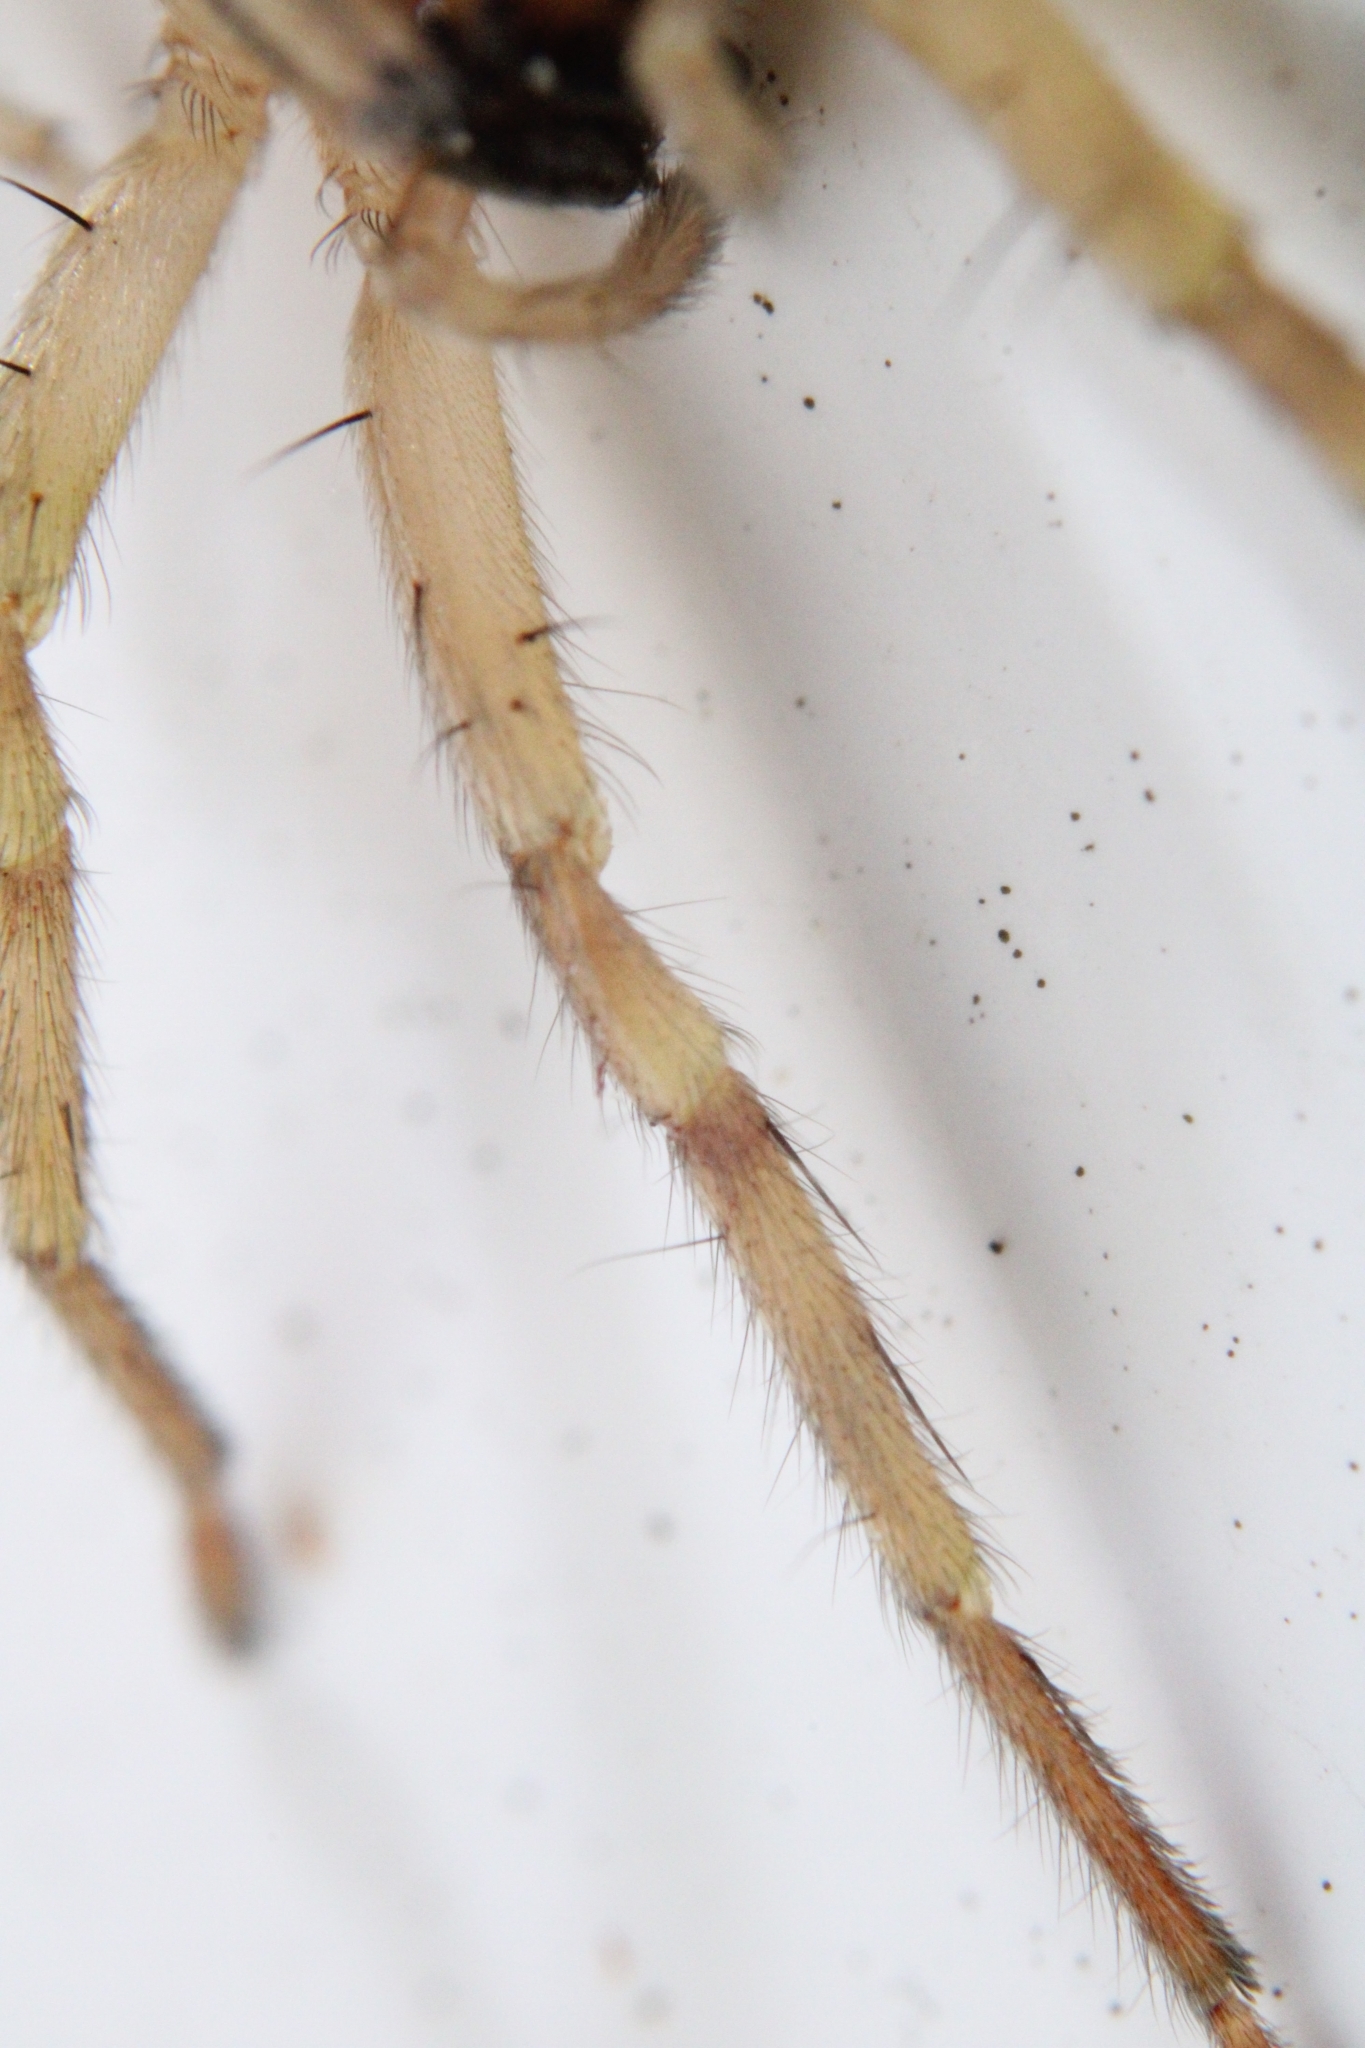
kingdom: Animalia
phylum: Arthropoda
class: Arachnida
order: Araneae
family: Anyphaenidae
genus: Hibana
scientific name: Hibana gracilis
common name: Garden ghost spider
